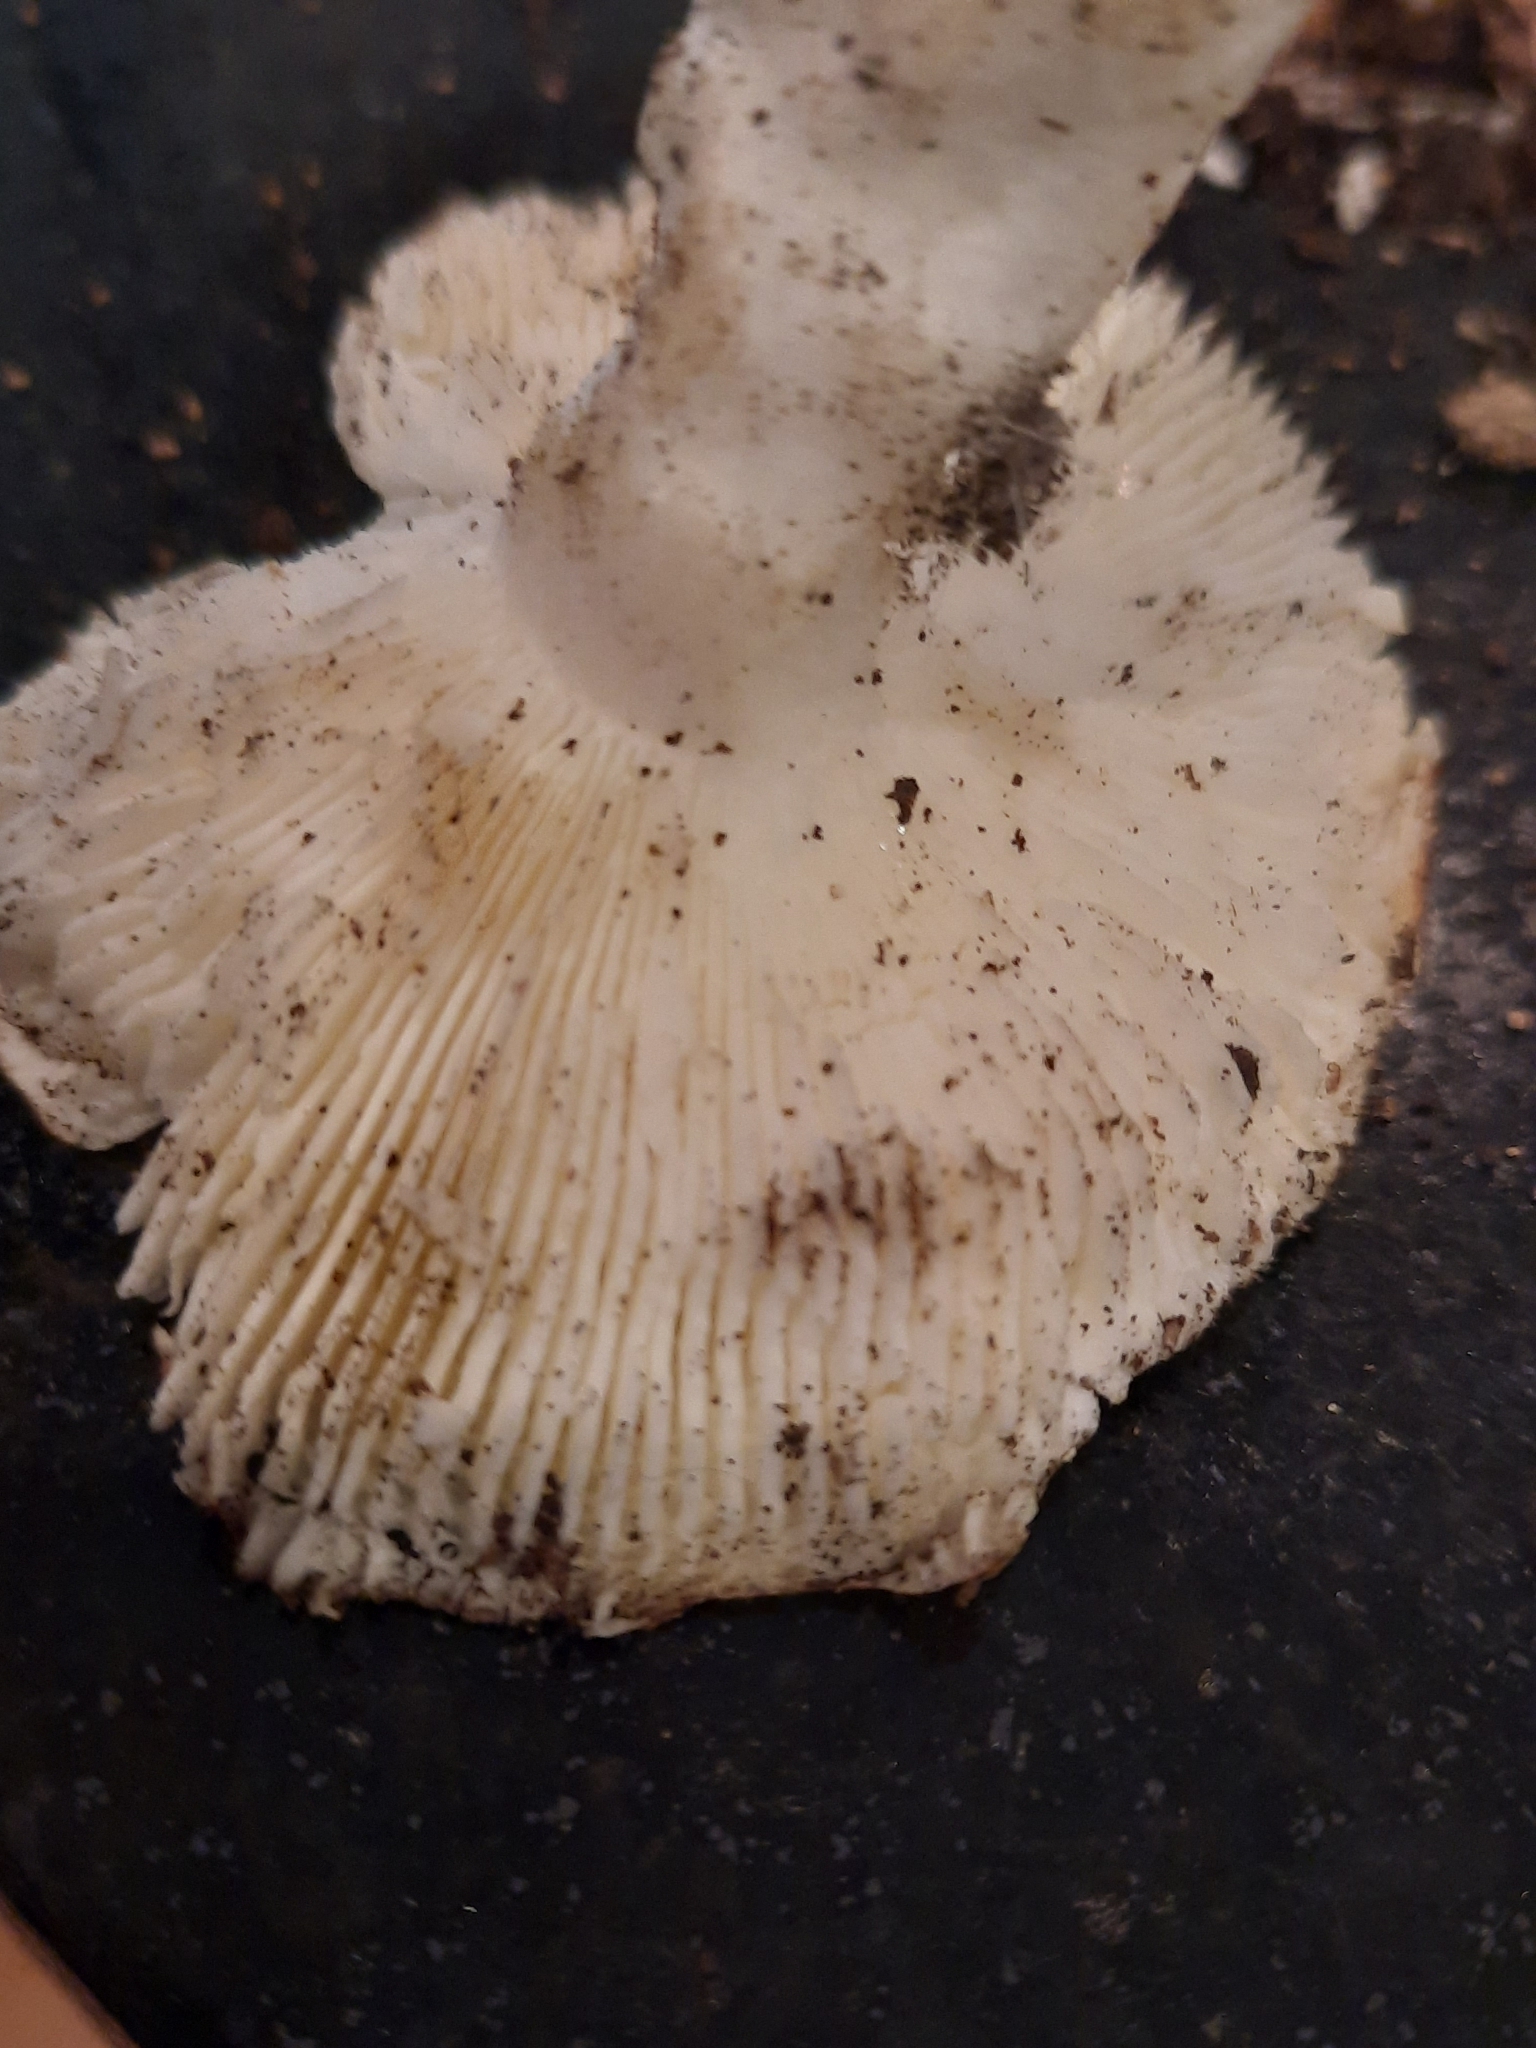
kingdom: Fungi
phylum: Basidiomycota
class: Agaricomycetes
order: Russulales
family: Russulaceae
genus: Russula
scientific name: Russula
